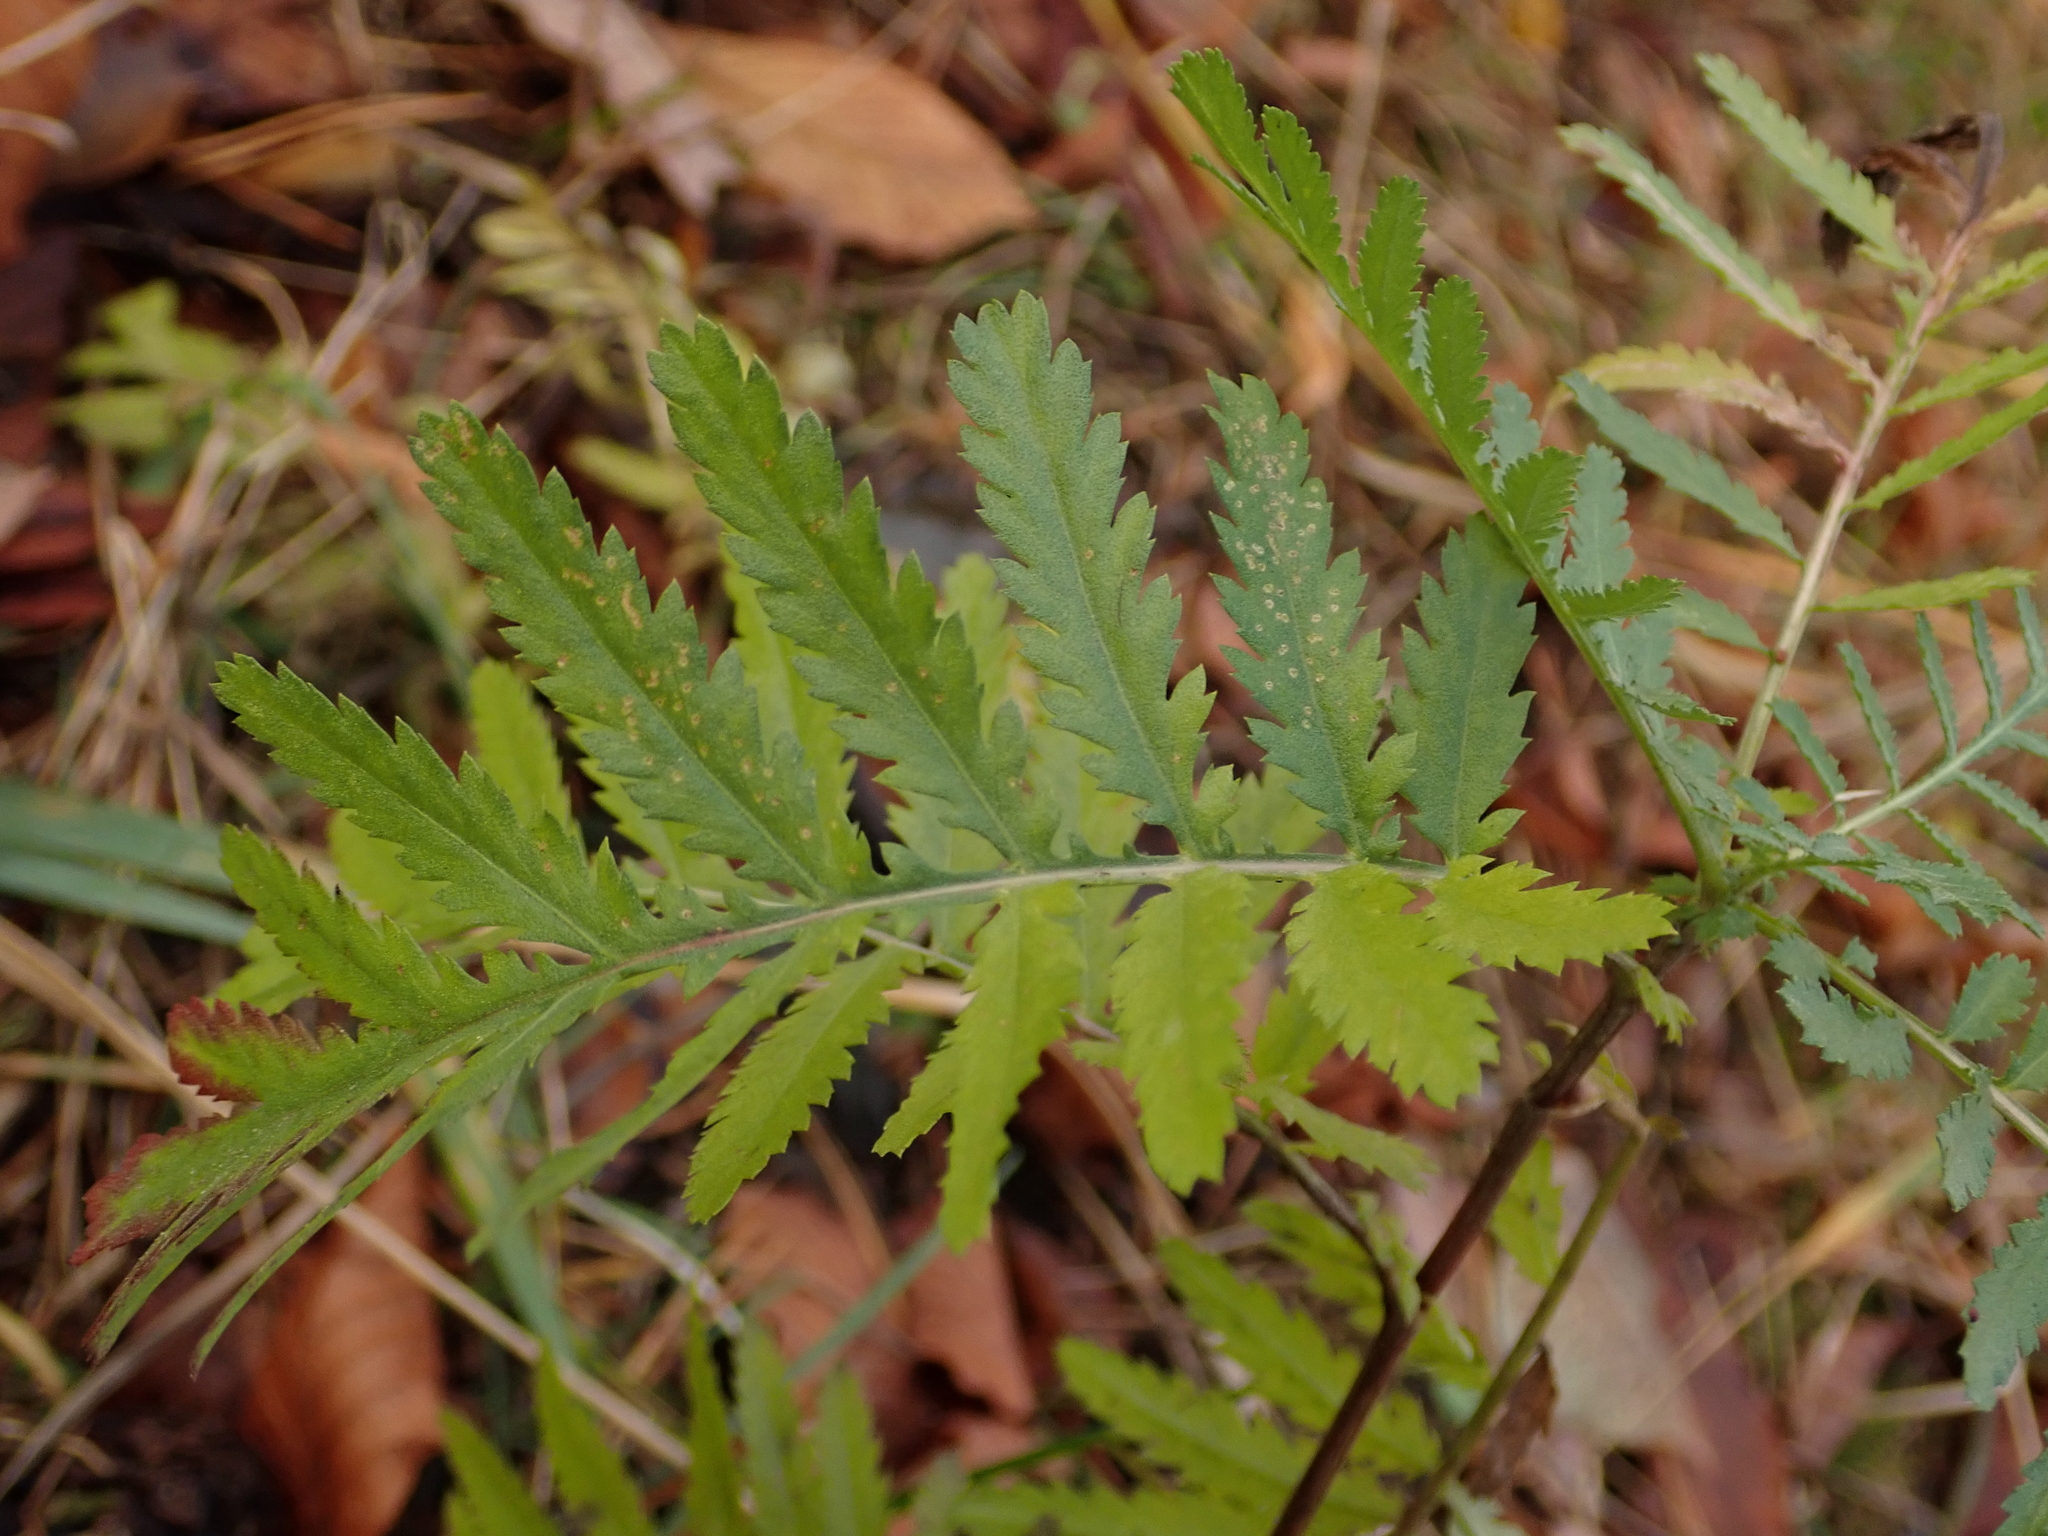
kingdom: Plantae
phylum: Tracheophyta
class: Magnoliopsida
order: Asterales
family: Asteraceae
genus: Tanacetum
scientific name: Tanacetum vulgare
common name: Common tansy
